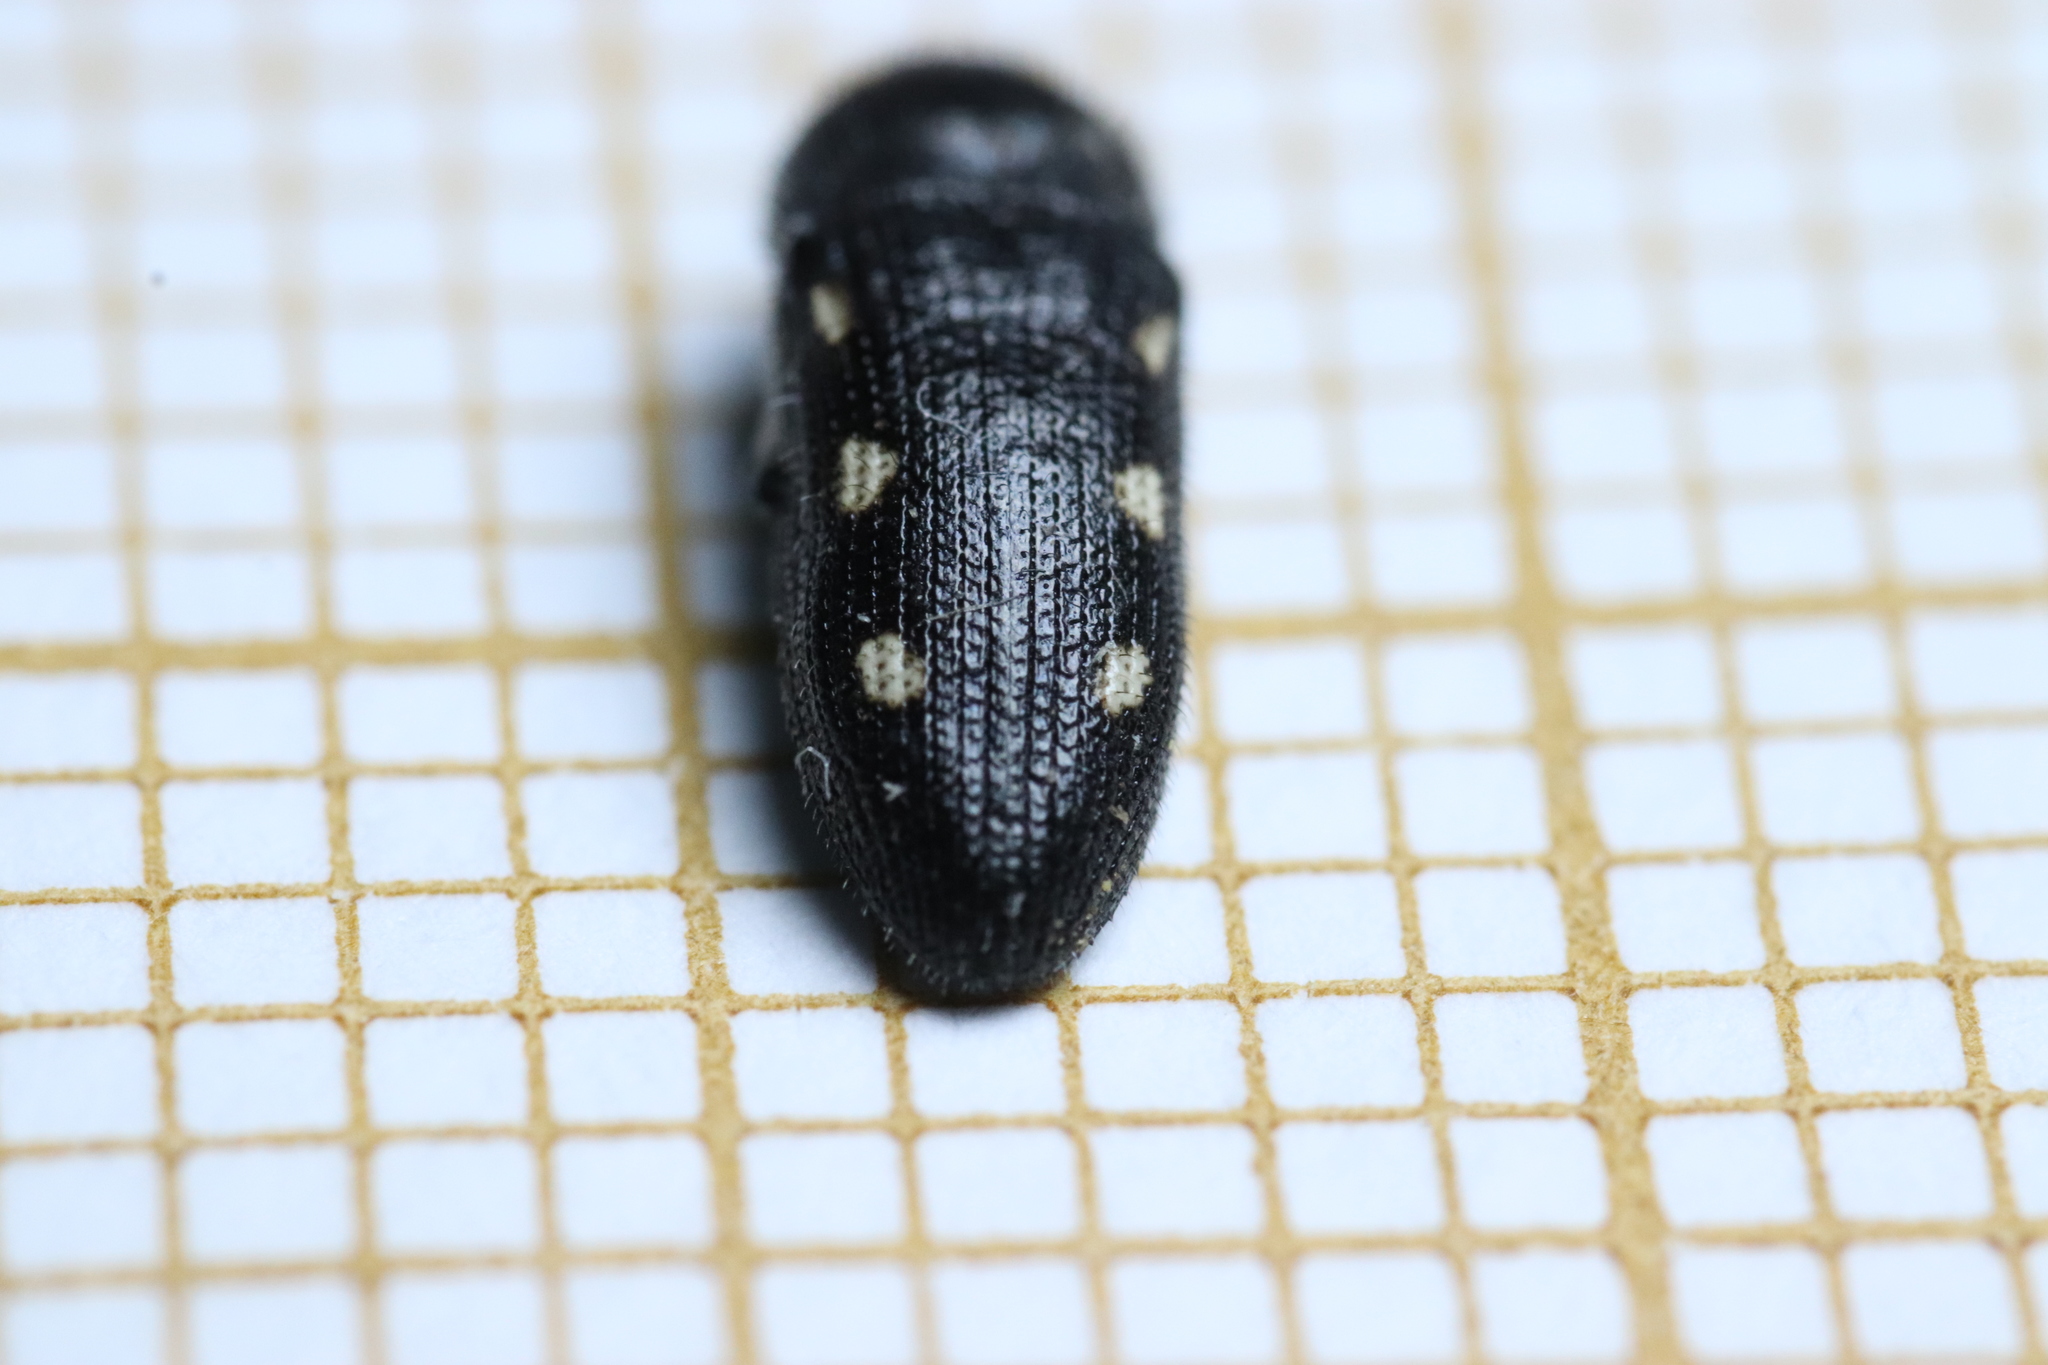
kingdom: Animalia
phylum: Arthropoda
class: Insecta
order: Coleoptera
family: Buprestidae
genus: Acmaeodera
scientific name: Acmaeodera bipunctata
